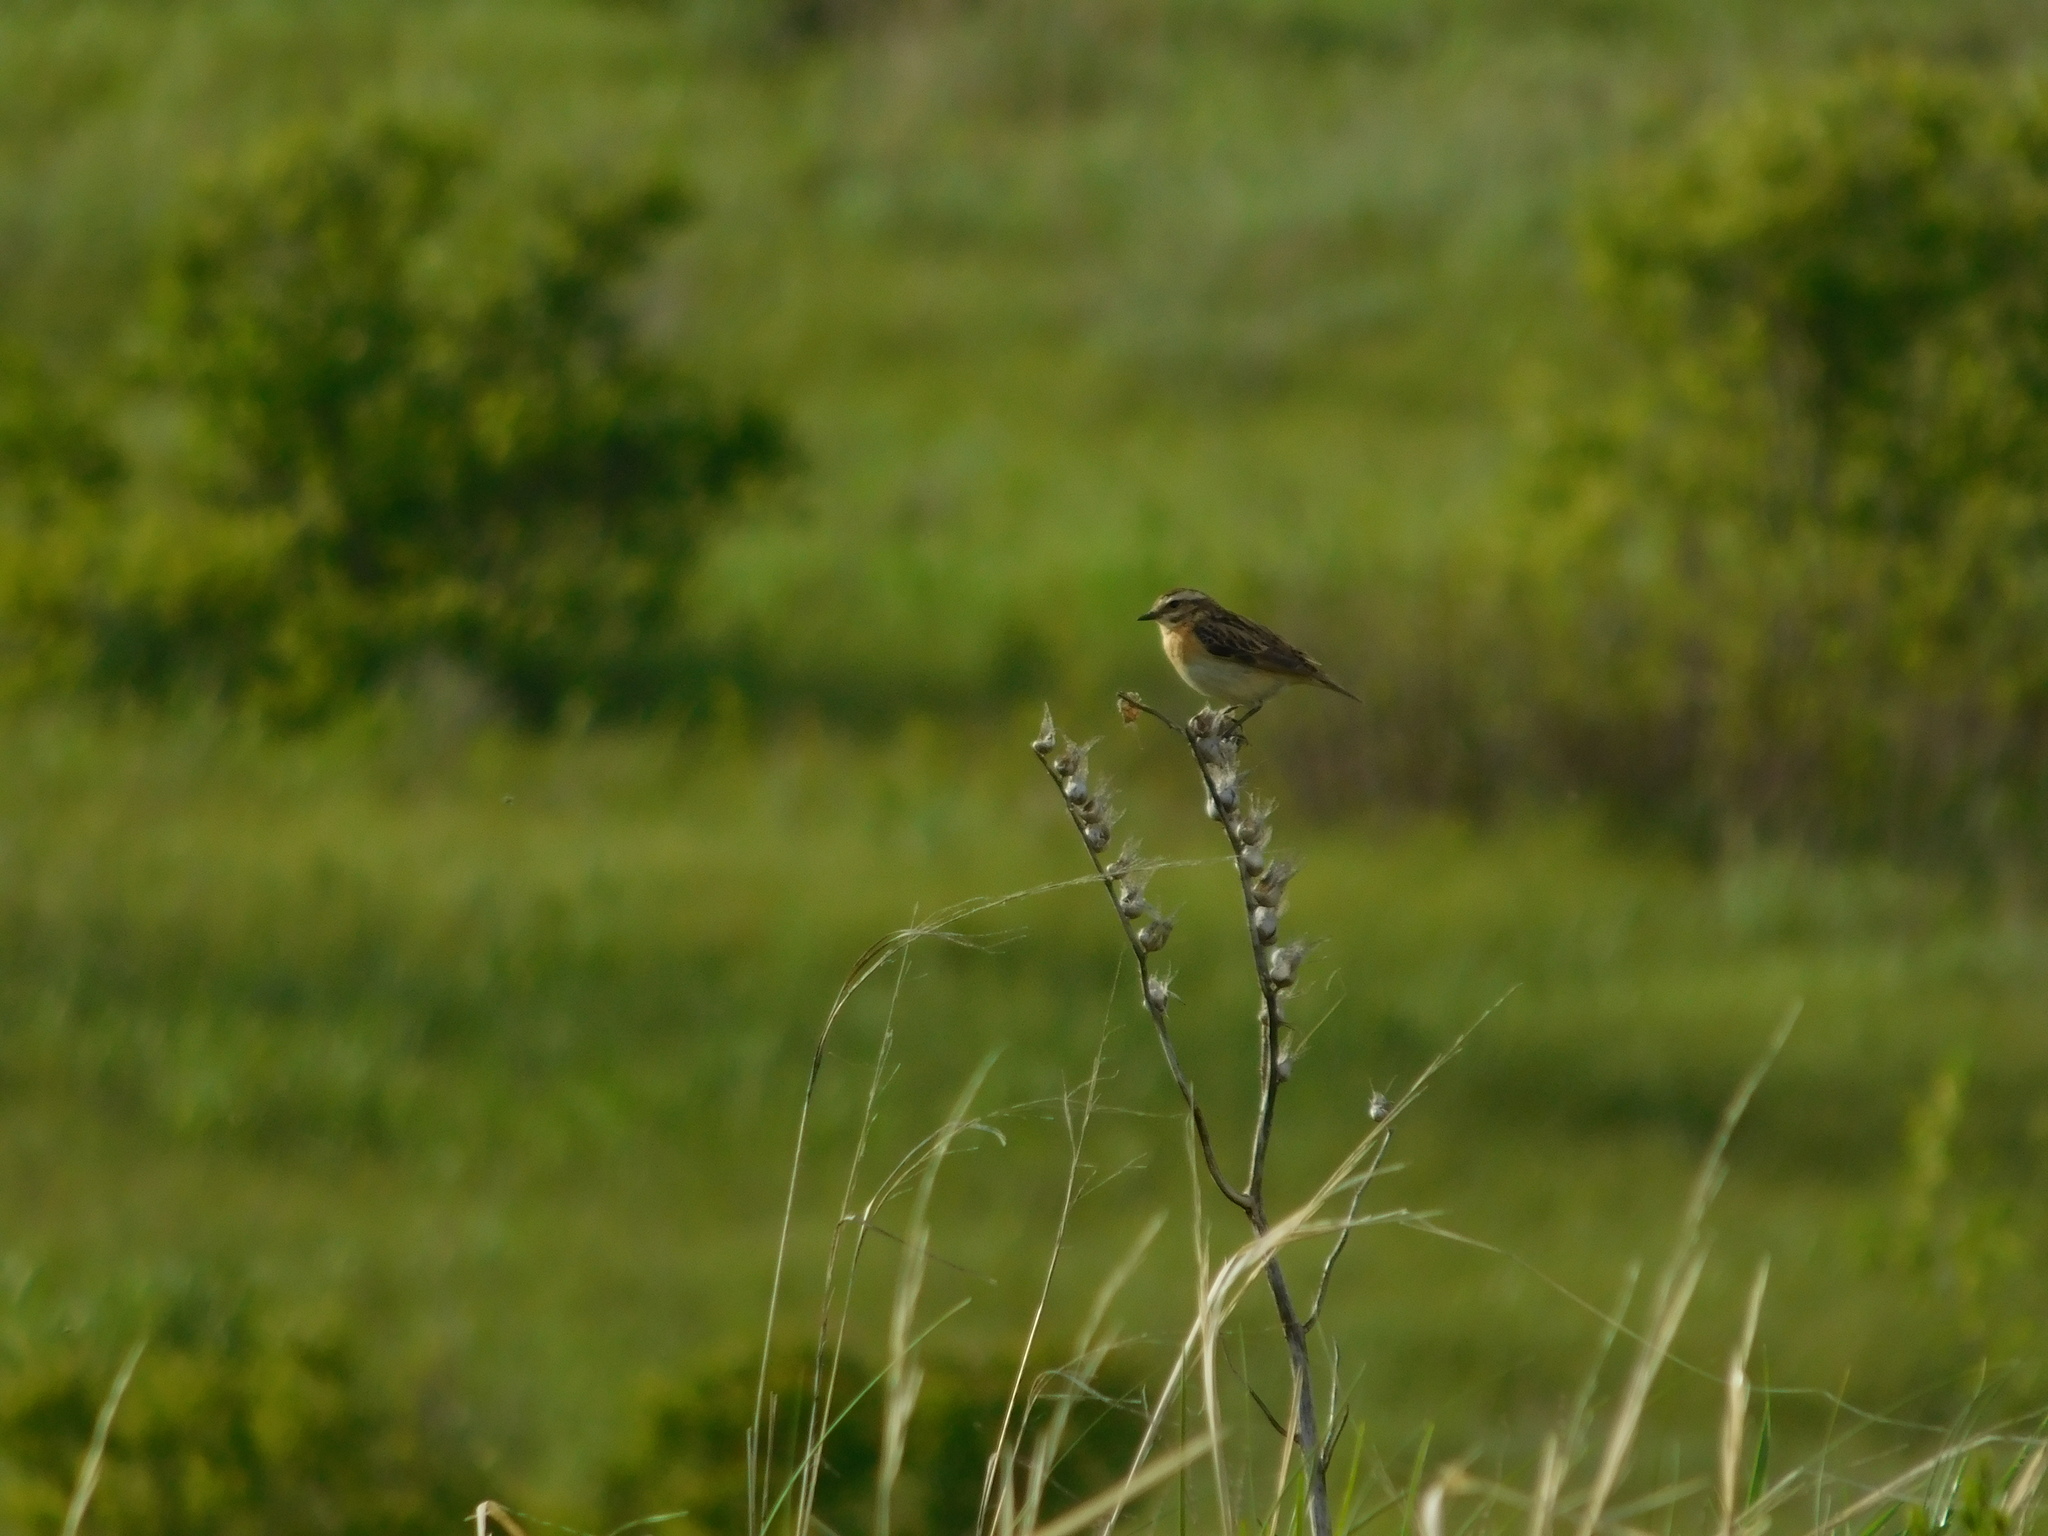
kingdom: Animalia
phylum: Chordata
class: Aves
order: Passeriformes
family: Muscicapidae
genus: Saxicola
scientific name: Saxicola rubetra
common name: Whinchat
